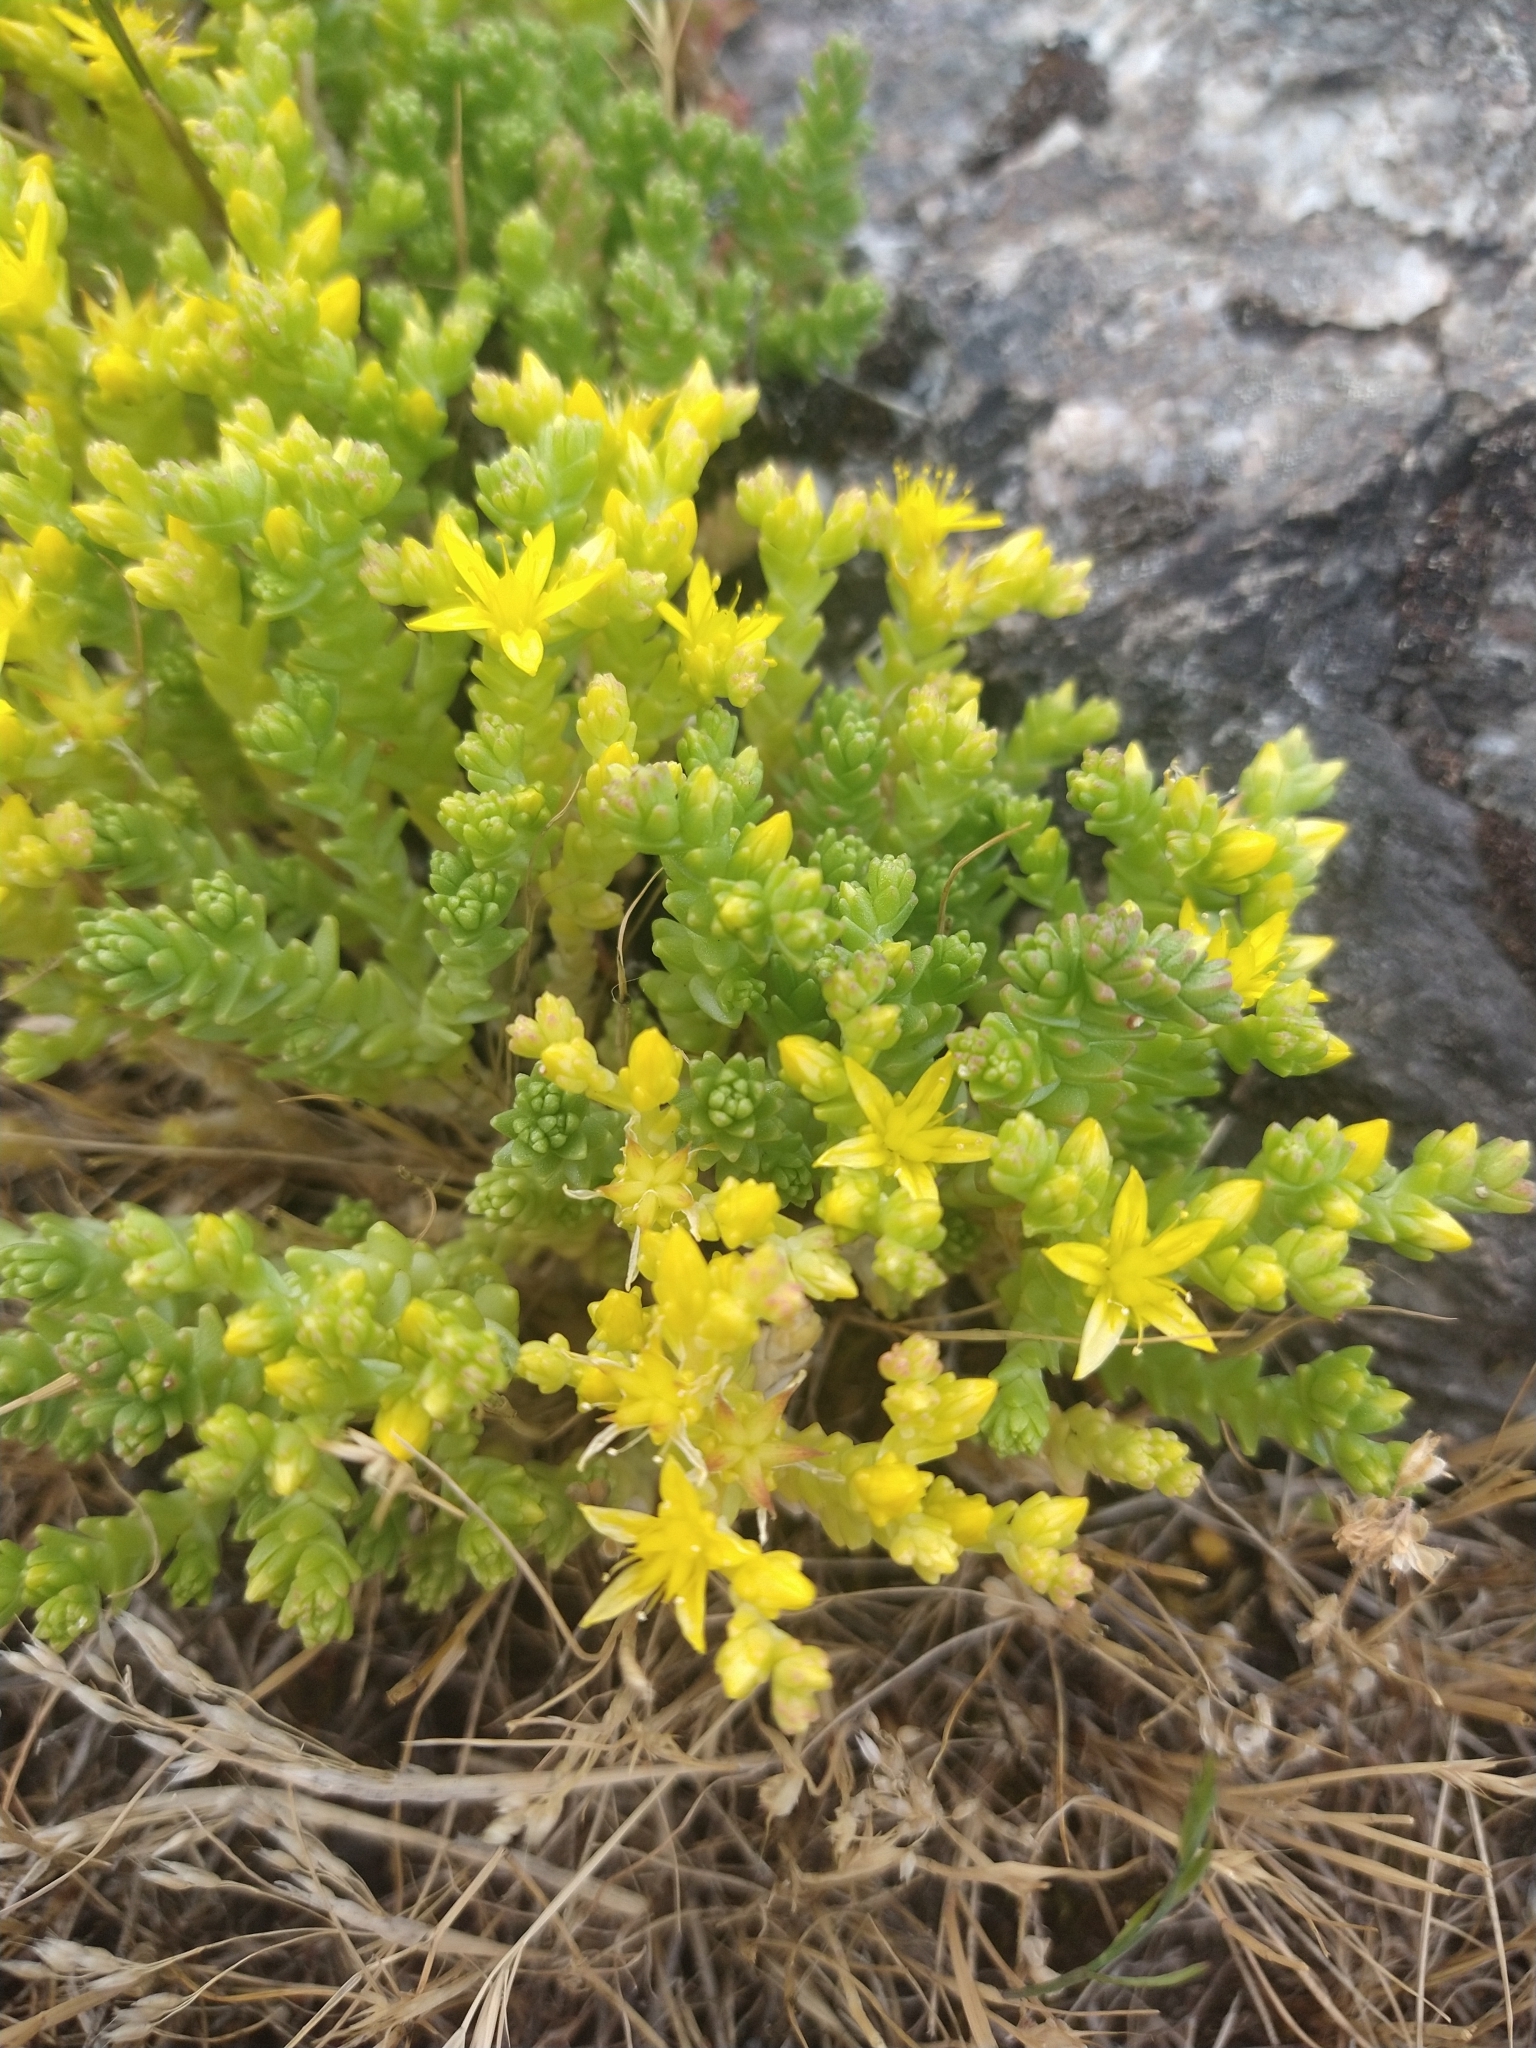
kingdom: Plantae
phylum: Tracheophyta
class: Magnoliopsida
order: Saxifragales
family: Crassulaceae
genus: Sedum
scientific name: Sedum acre
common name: Biting stonecrop
